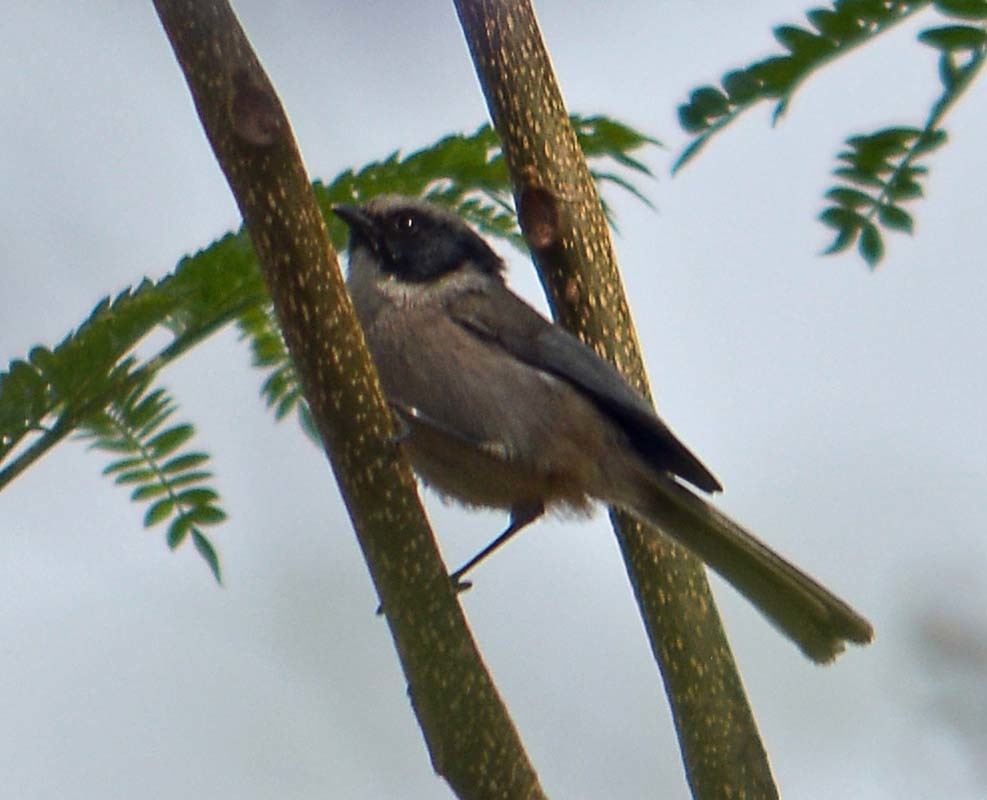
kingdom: Animalia
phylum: Chordata
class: Aves
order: Passeriformes
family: Aegithalidae
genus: Psaltriparus
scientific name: Psaltriparus minimus
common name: American bushtit
